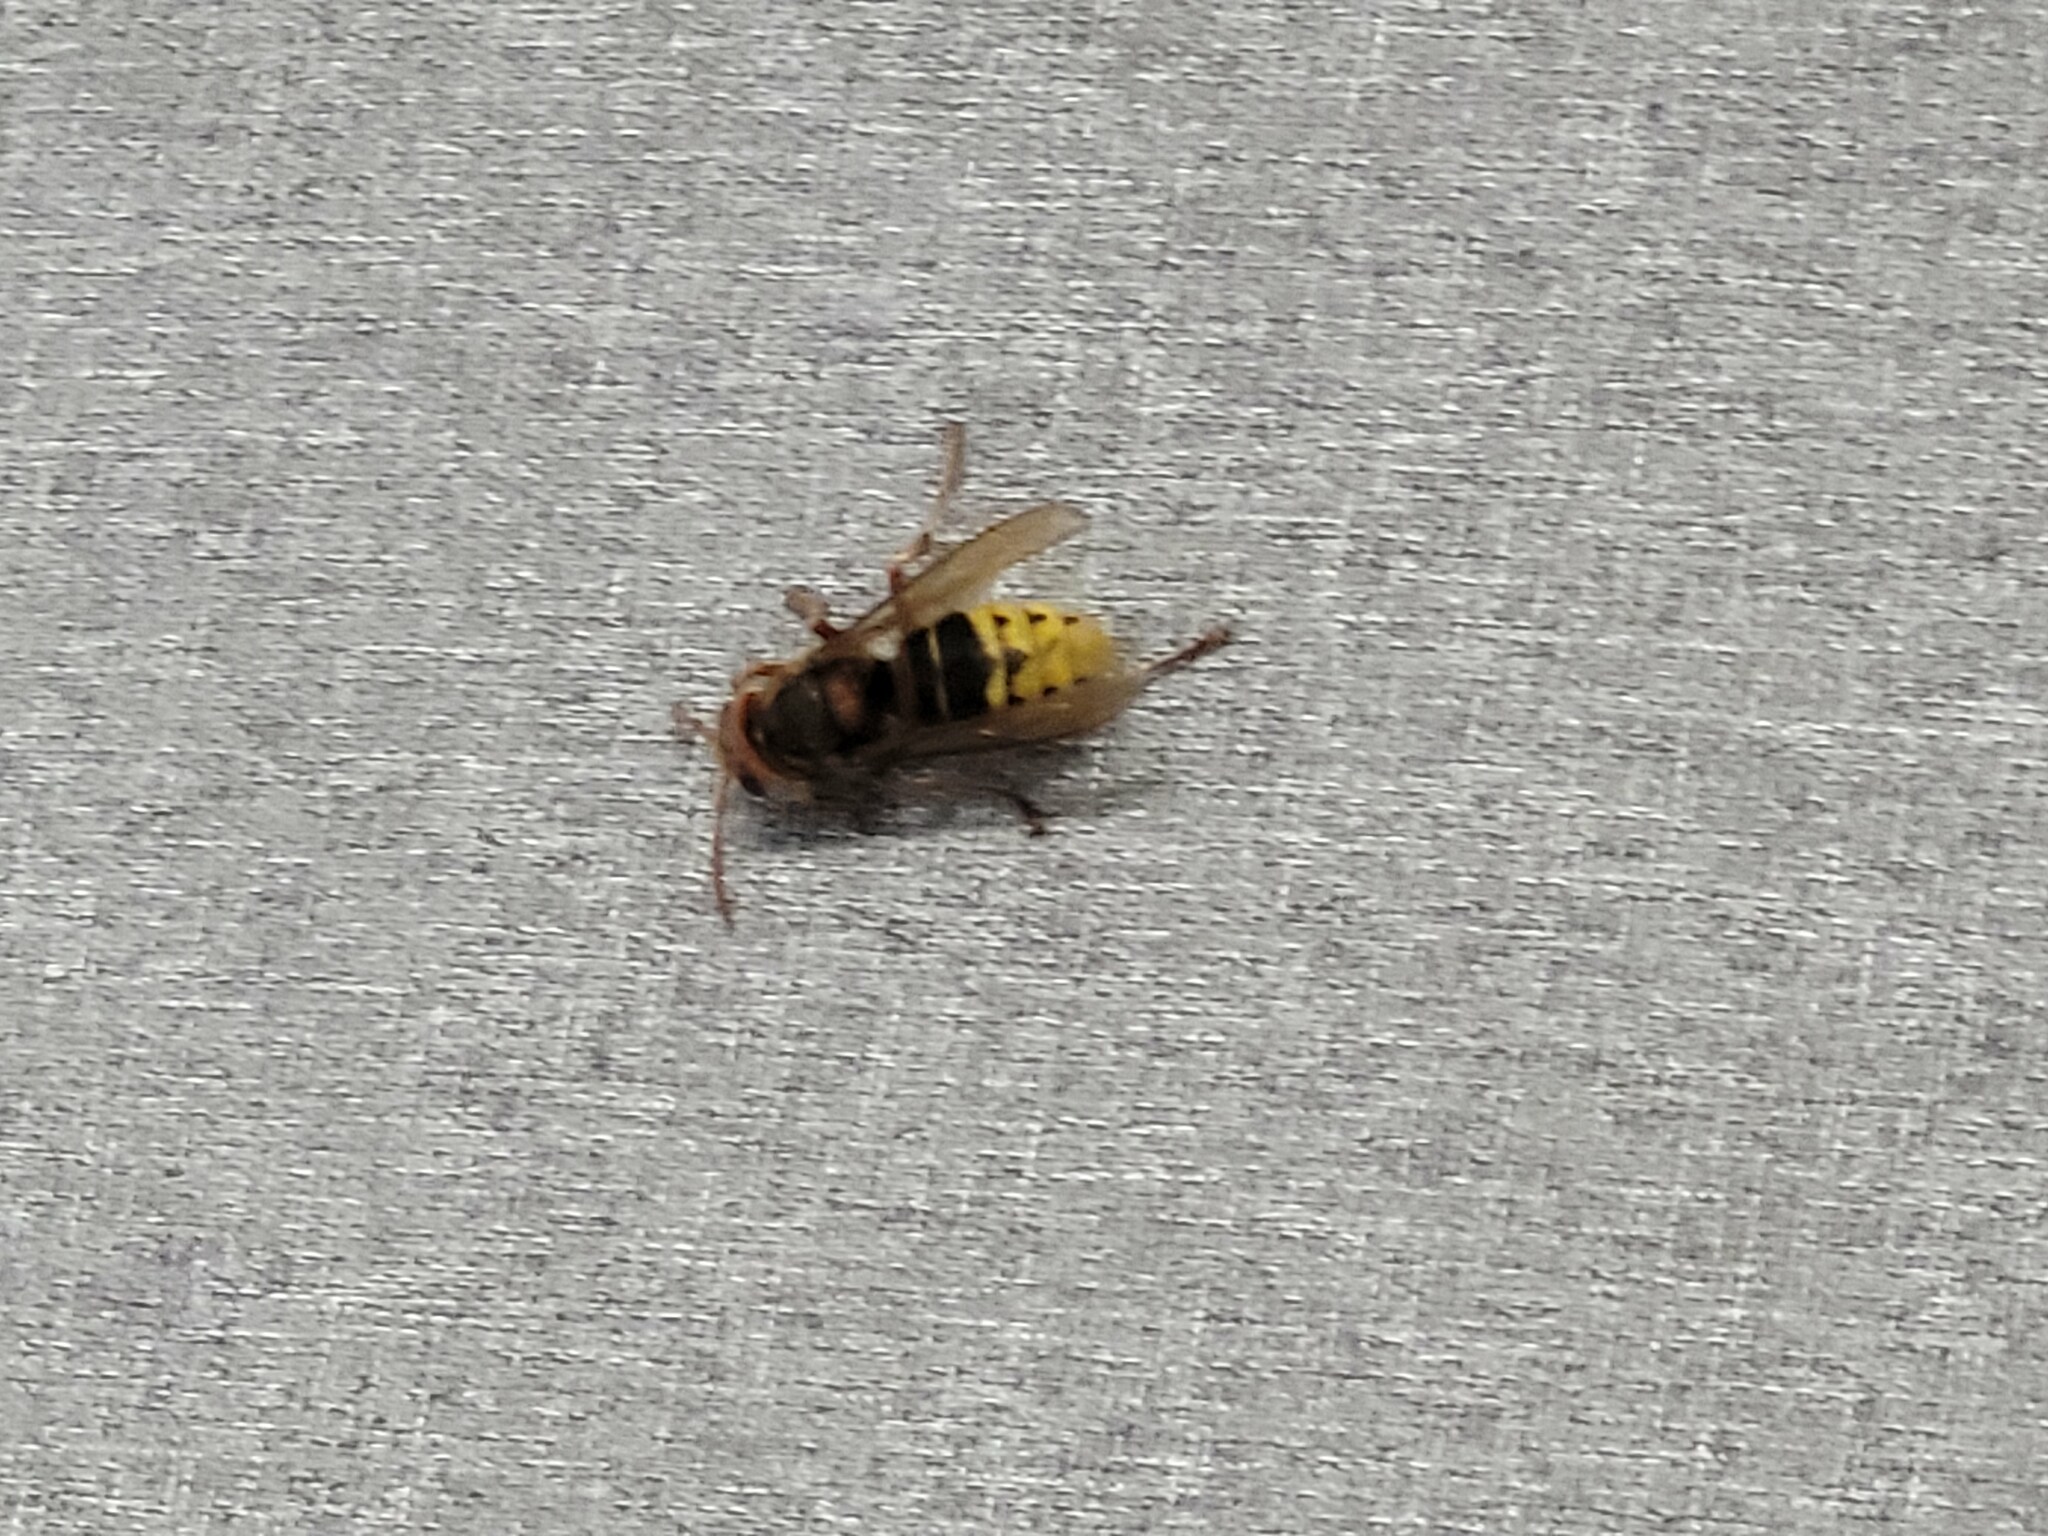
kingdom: Animalia
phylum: Arthropoda
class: Insecta
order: Hymenoptera
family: Vespidae
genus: Vespa
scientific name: Vespa crabro
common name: Hornet
